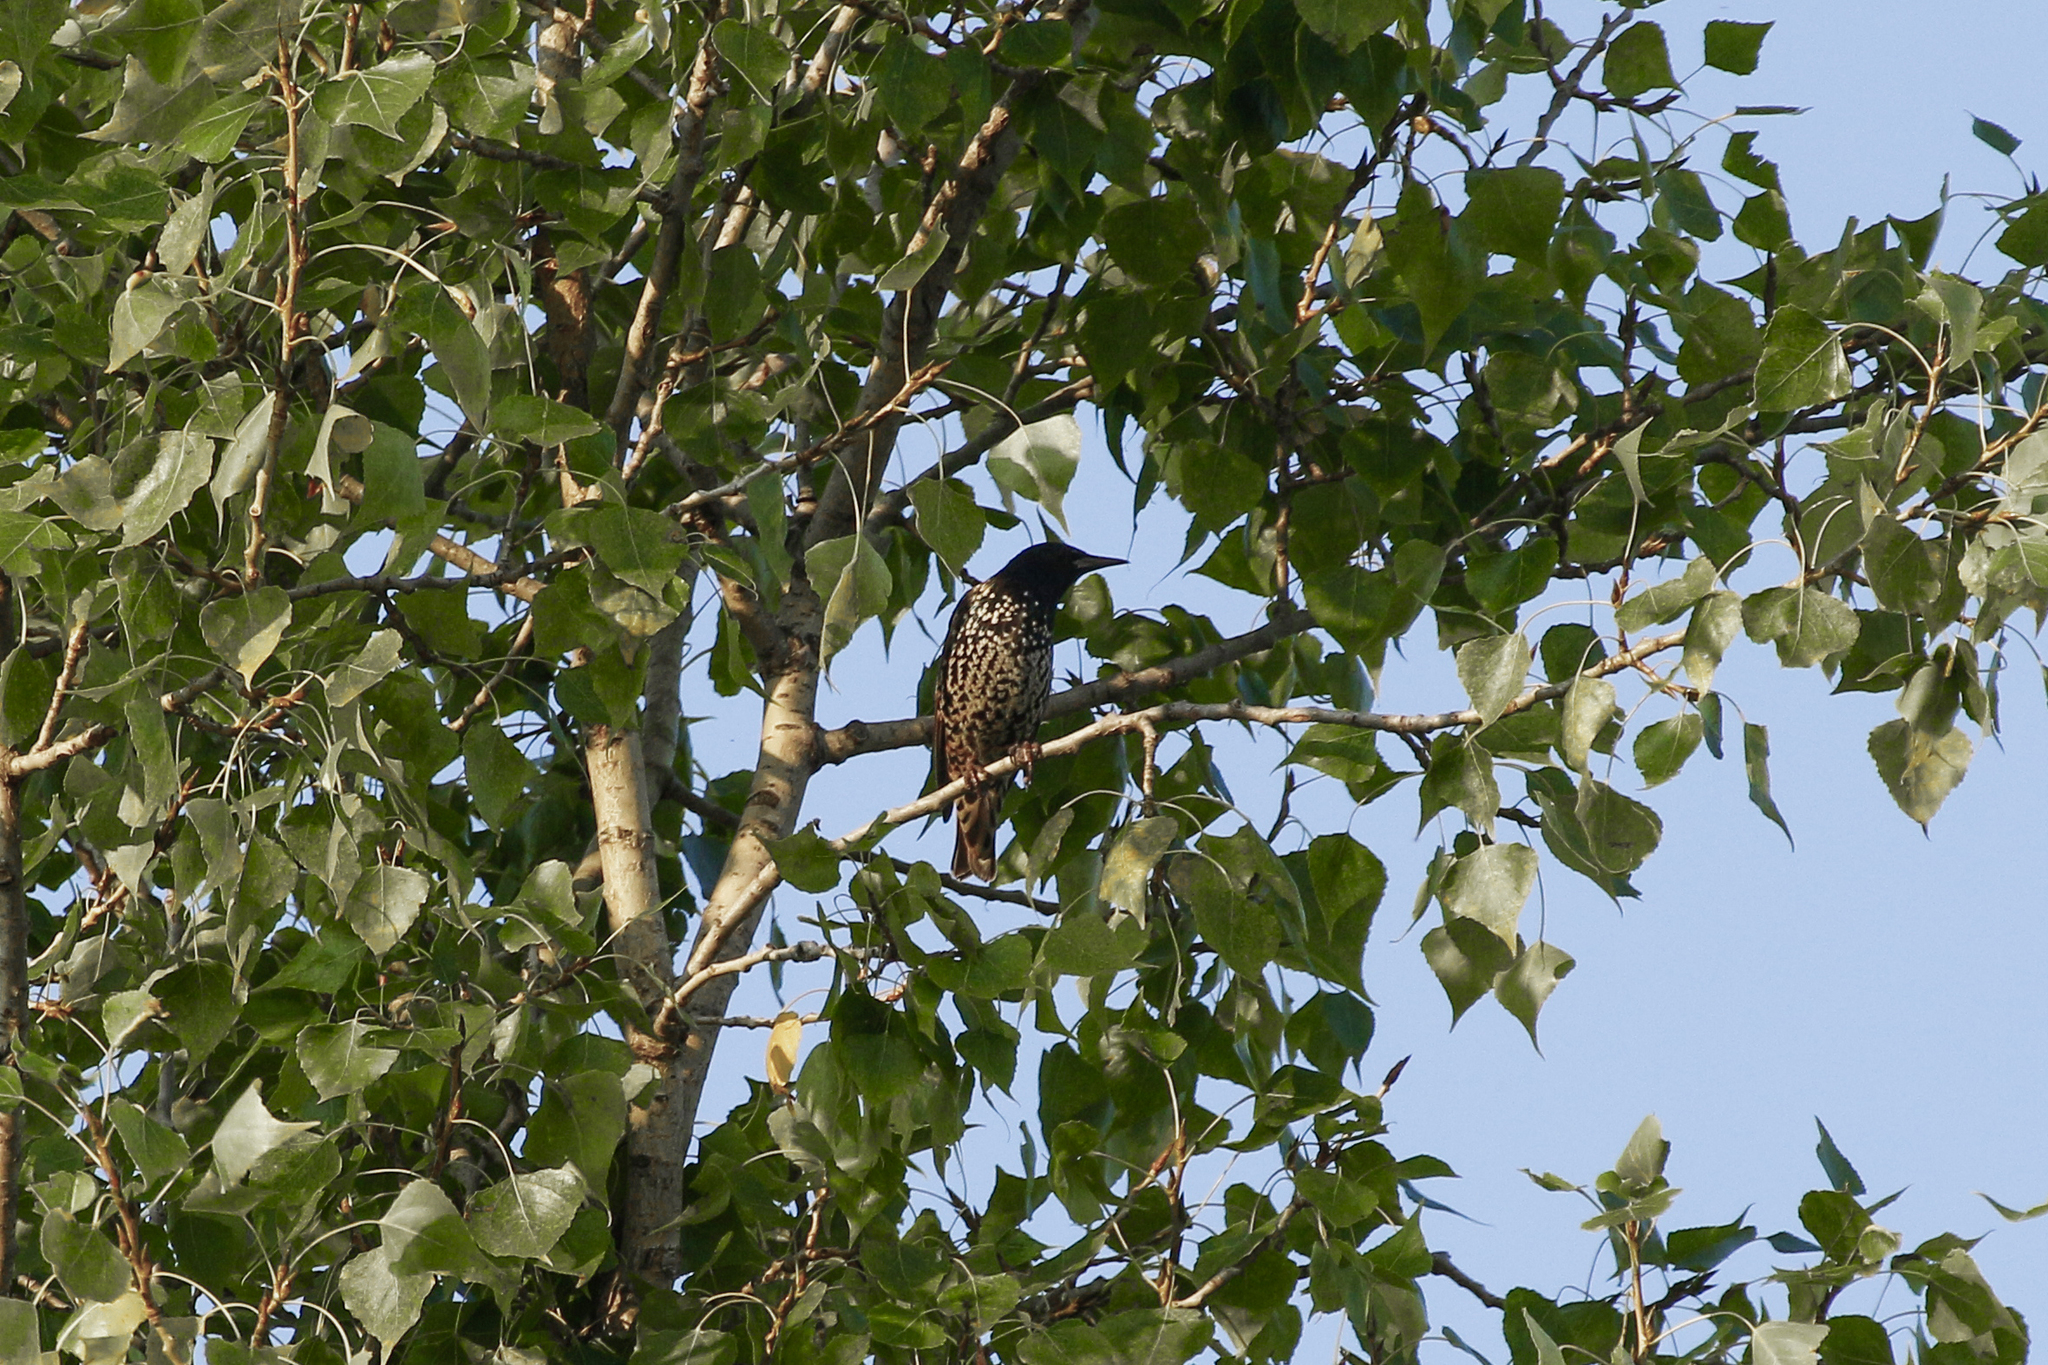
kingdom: Animalia
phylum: Chordata
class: Aves
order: Passeriformes
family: Sturnidae
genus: Sturnus
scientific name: Sturnus vulgaris
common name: Common starling
